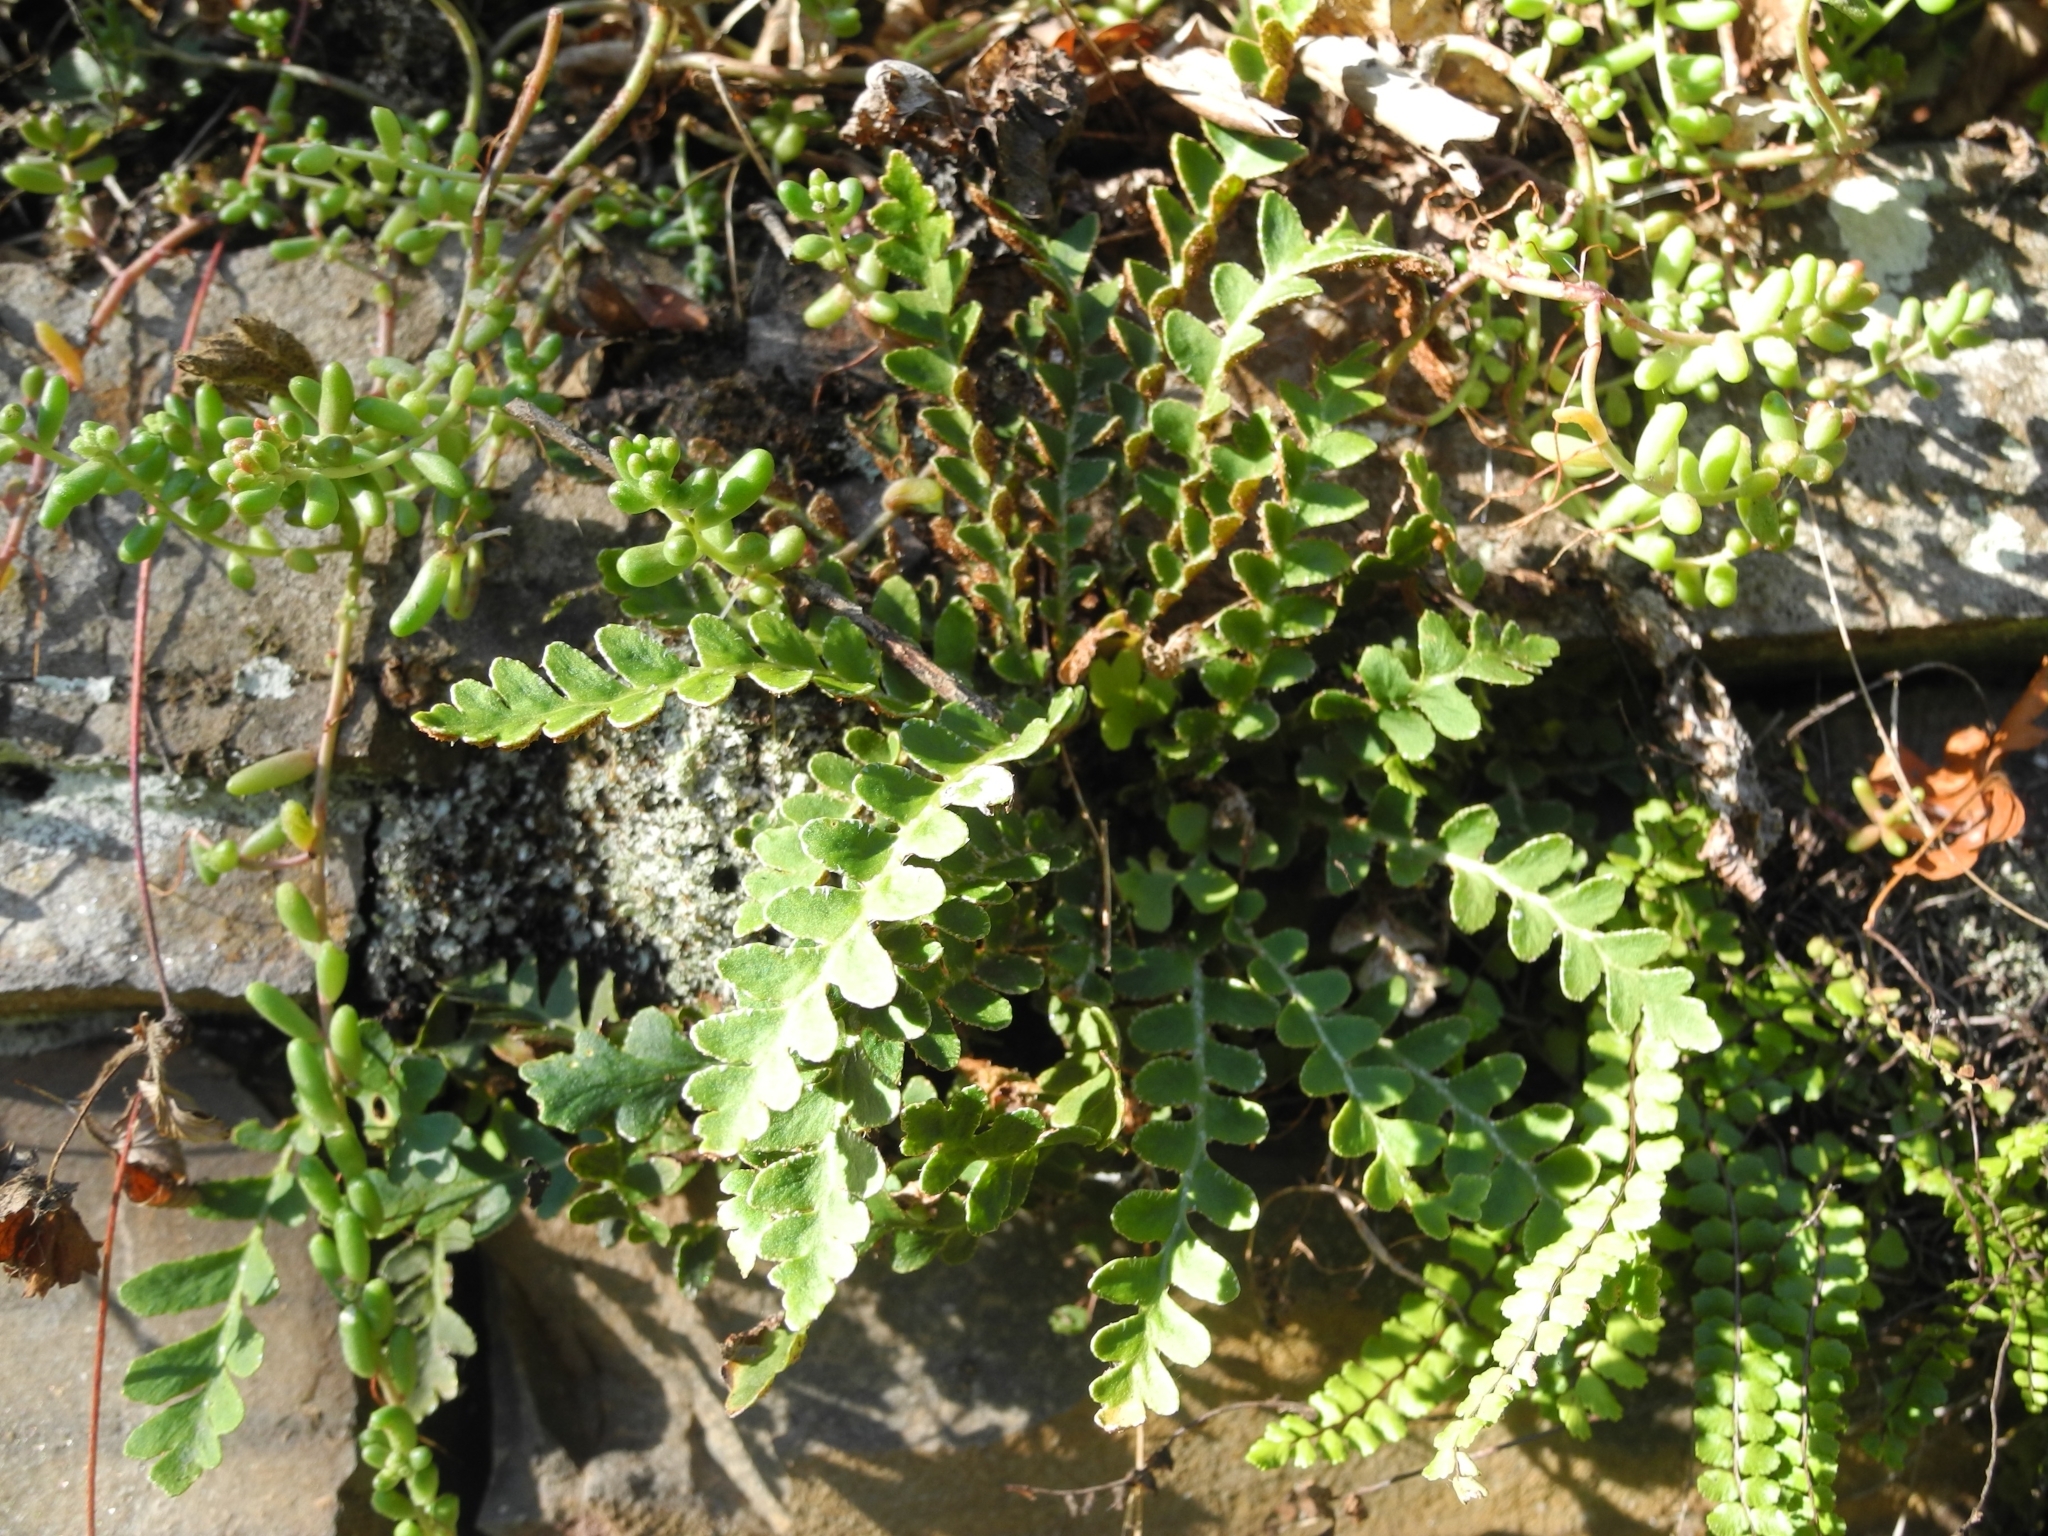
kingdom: Plantae
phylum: Tracheophyta
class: Polypodiopsida
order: Polypodiales
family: Aspleniaceae
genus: Asplenium
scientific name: Asplenium ceterach
